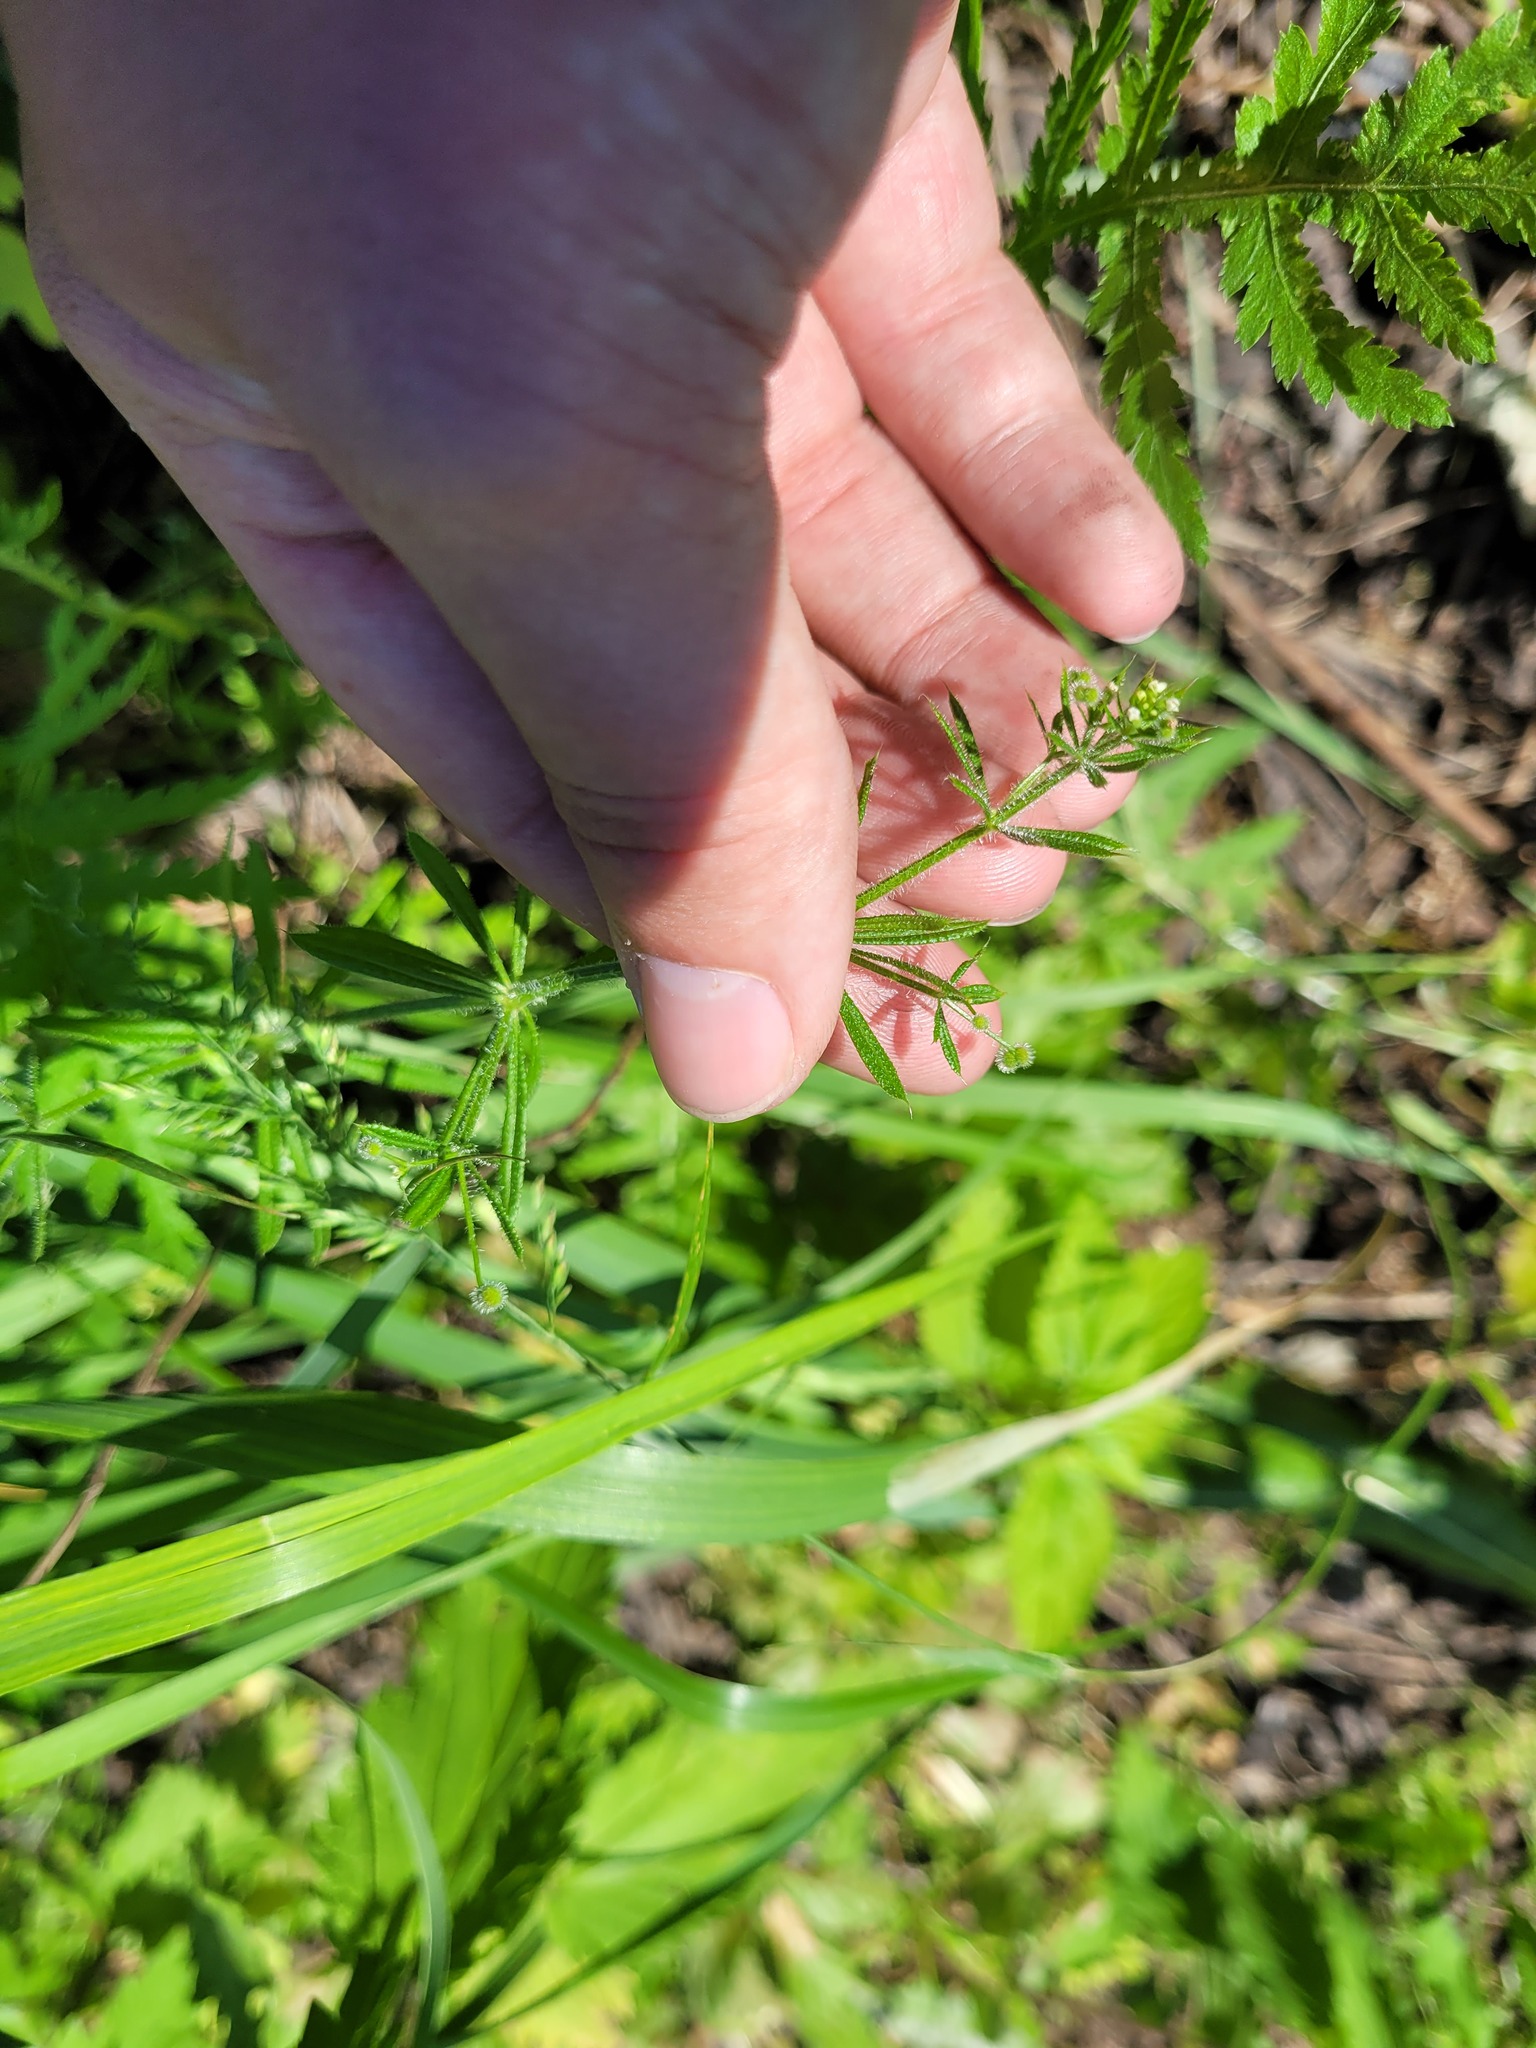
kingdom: Plantae
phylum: Tracheophyta
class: Magnoliopsida
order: Gentianales
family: Rubiaceae
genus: Galium
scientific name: Galium aparine
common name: Cleavers
